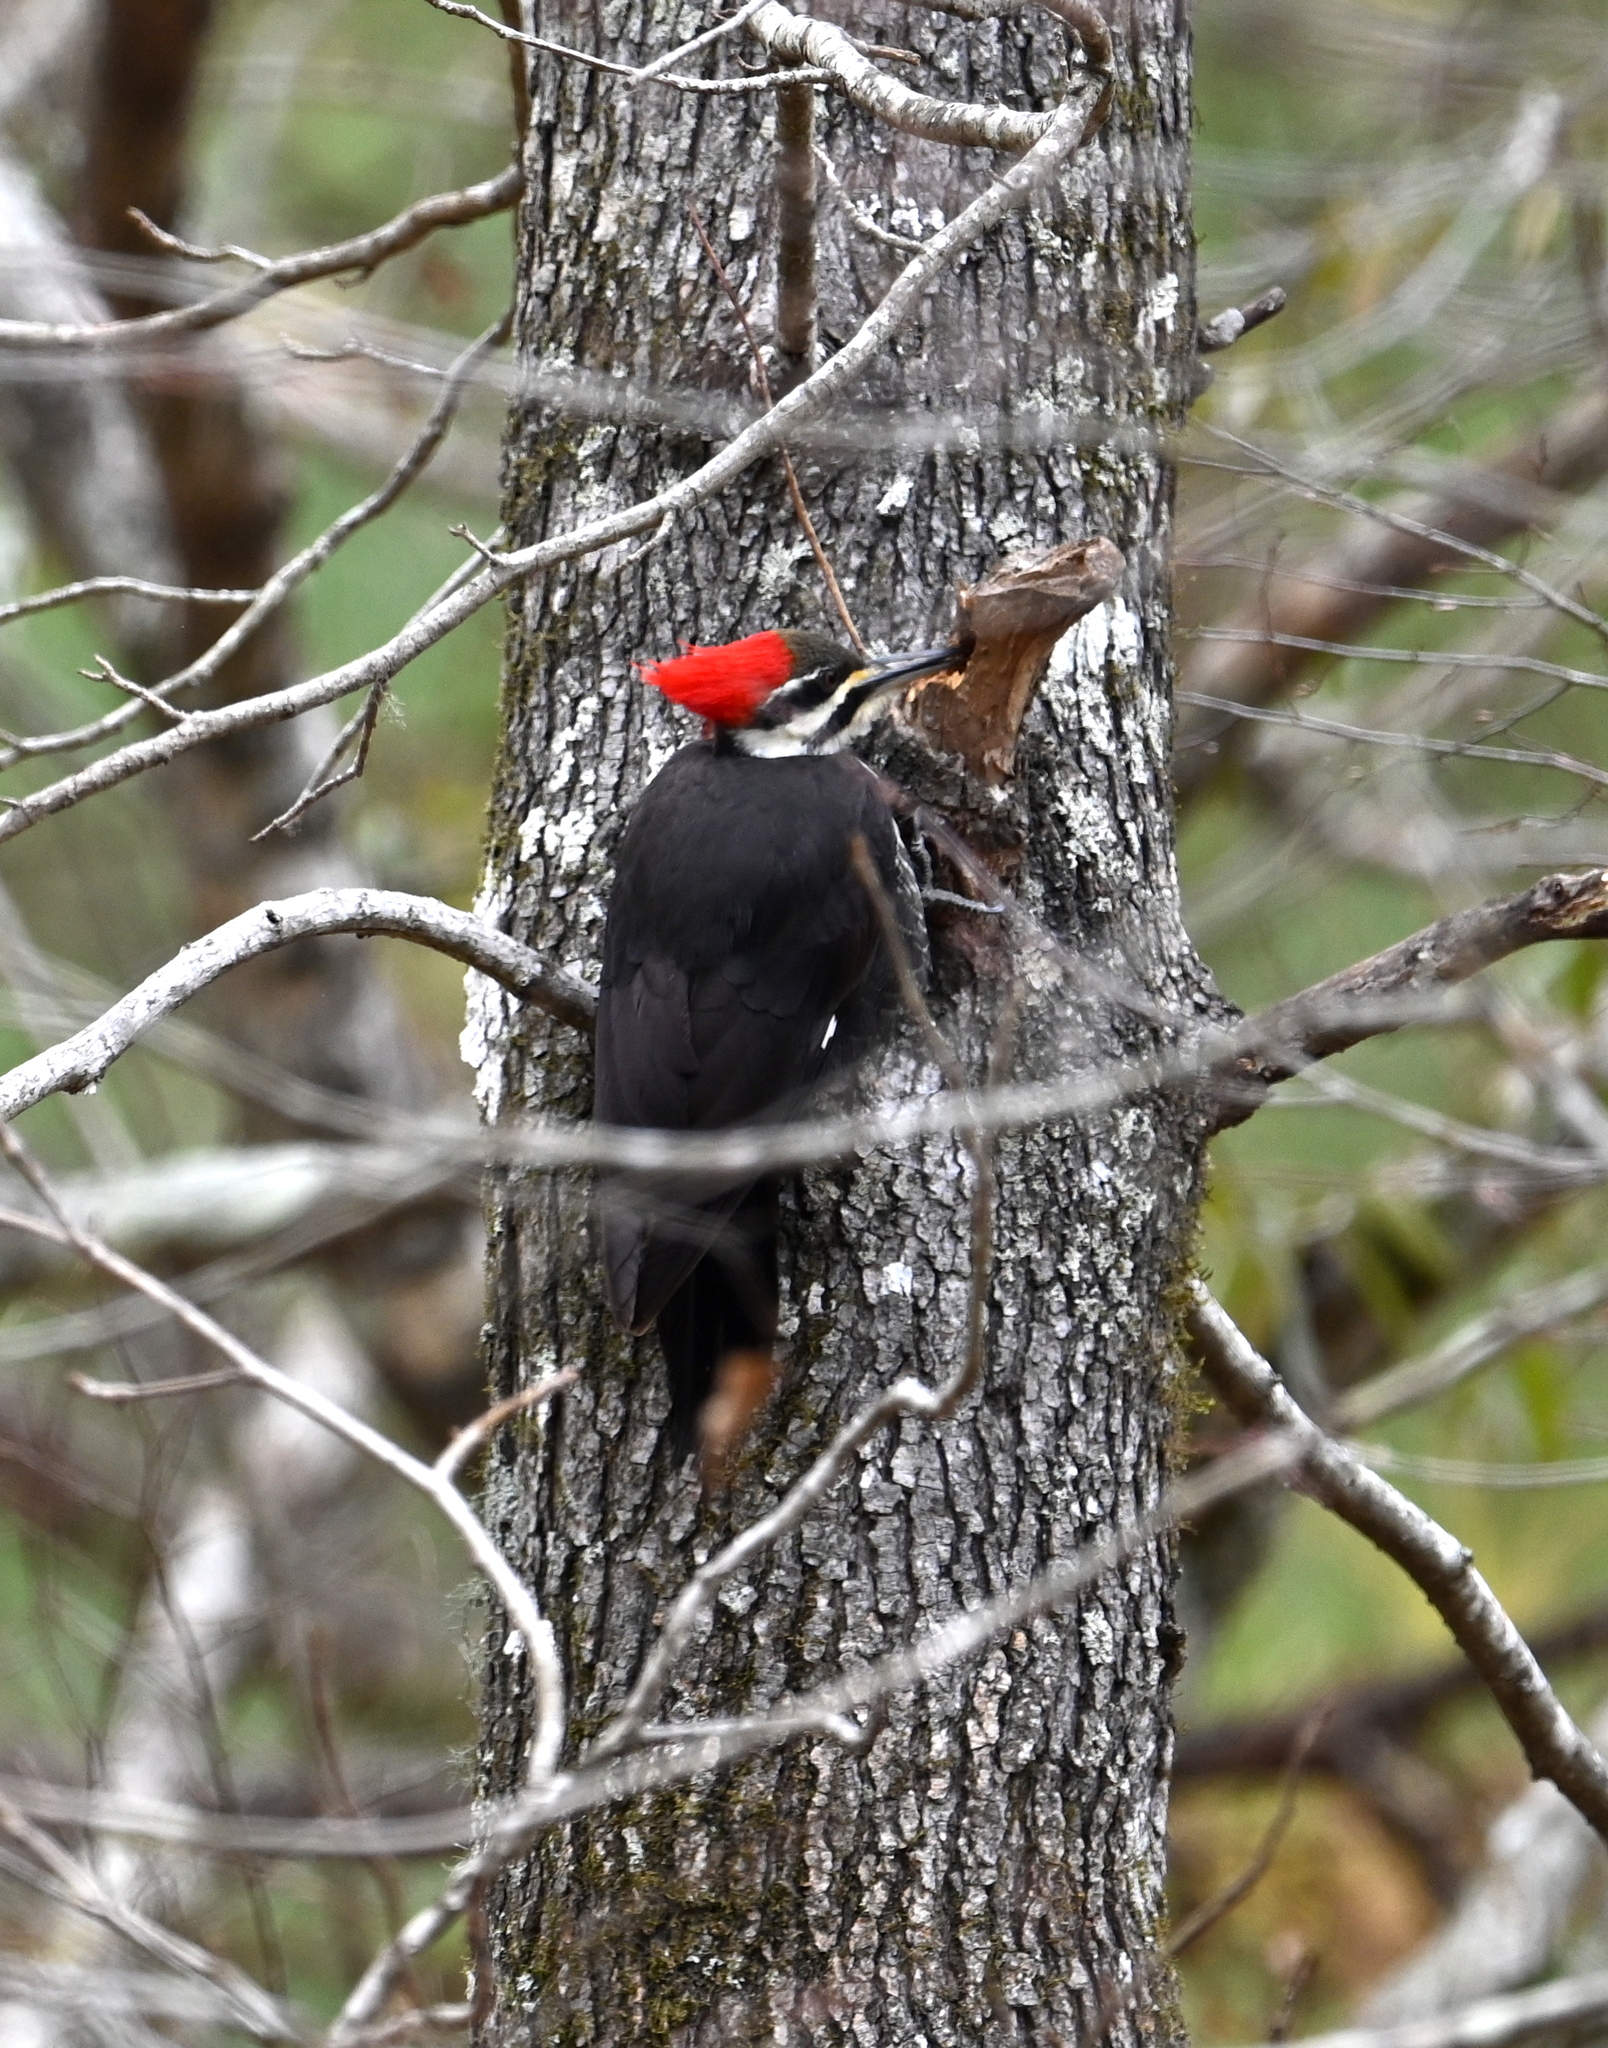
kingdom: Animalia
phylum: Chordata
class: Aves
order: Piciformes
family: Picidae
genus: Dryocopus
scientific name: Dryocopus pileatus
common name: Pileated woodpecker
